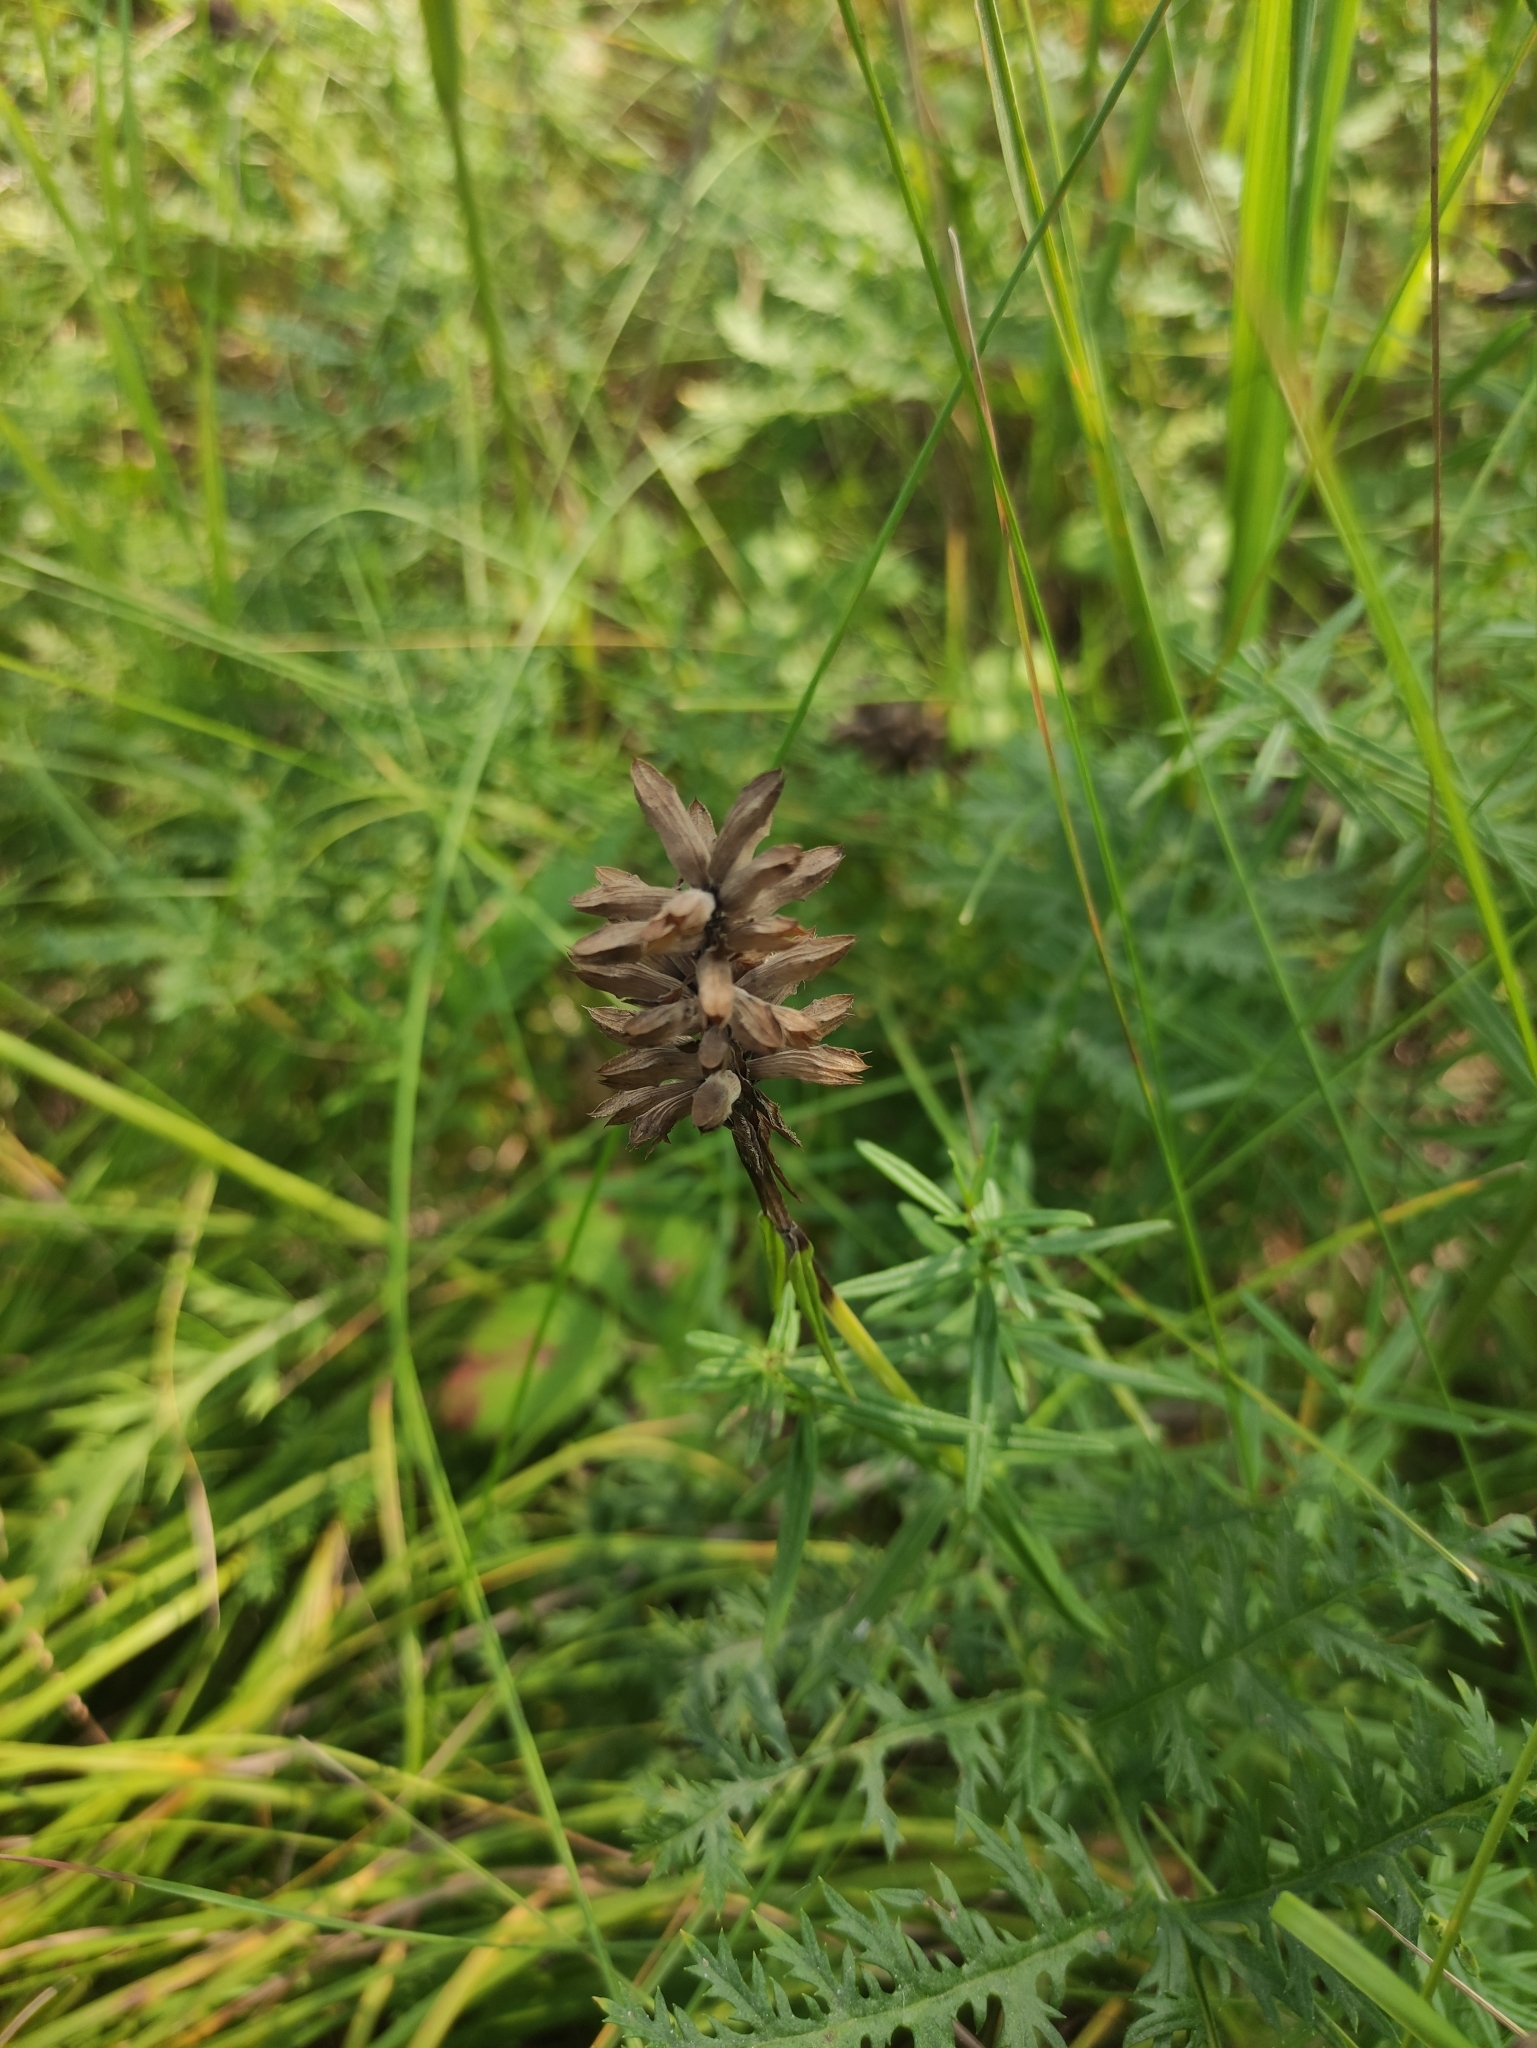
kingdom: Plantae
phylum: Tracheophyta
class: Magnoliopsida
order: Lamiales
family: Lamiaceae
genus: Dracocephalum
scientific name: Dracocephalum ruyschiana
